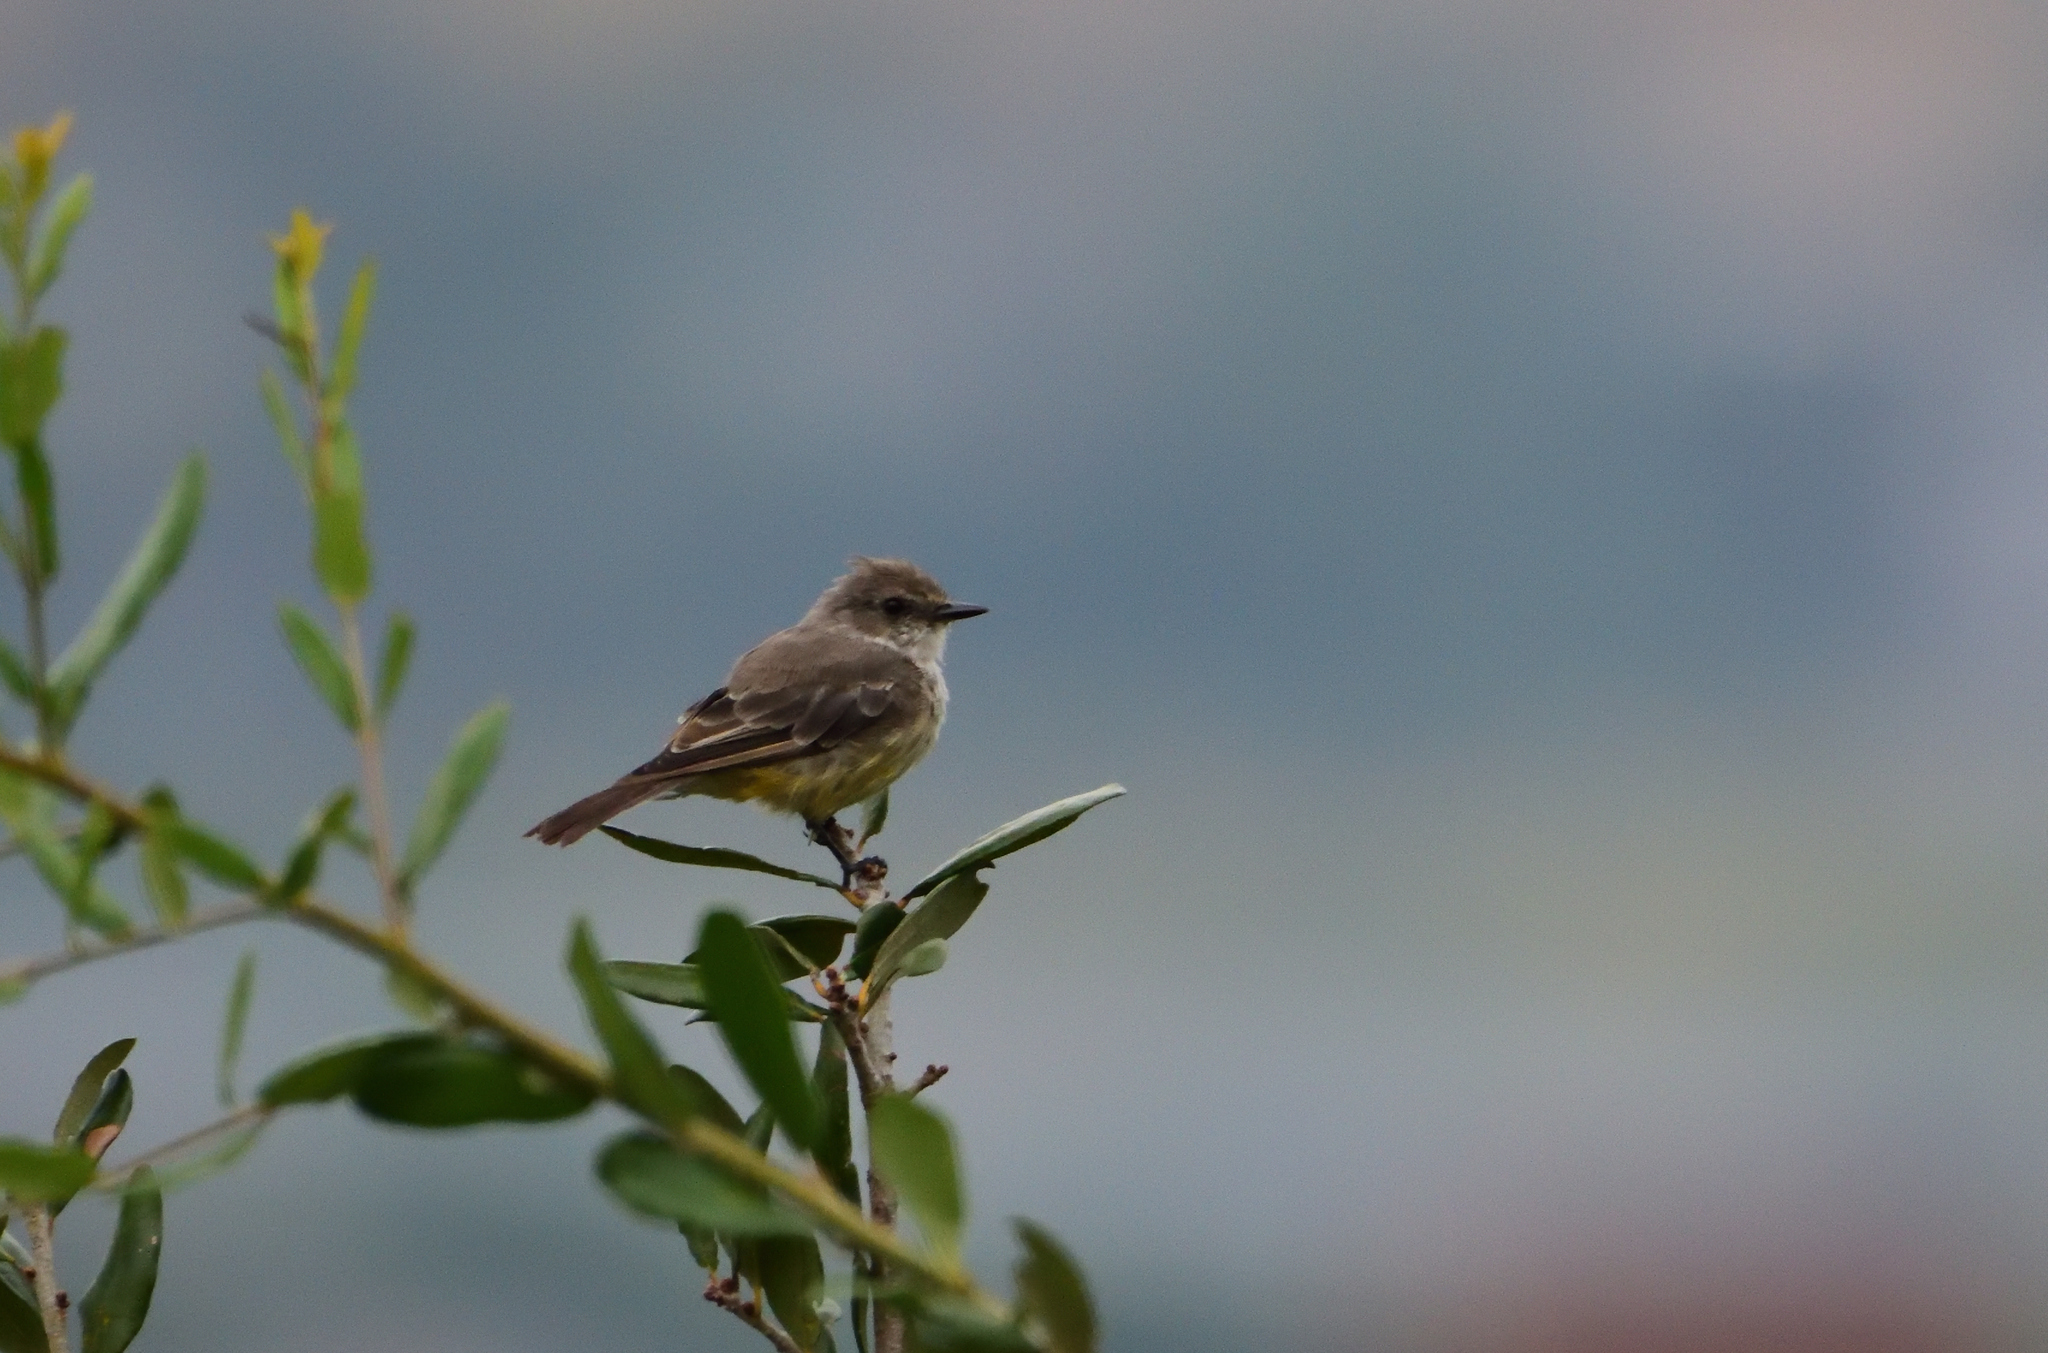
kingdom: Animalia
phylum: Chordata
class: Aves
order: Passeriformes
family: Tyrannidae
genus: Pyrocephalus
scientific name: Pyrocephalus rubinus
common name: Vermilion flycatcher
